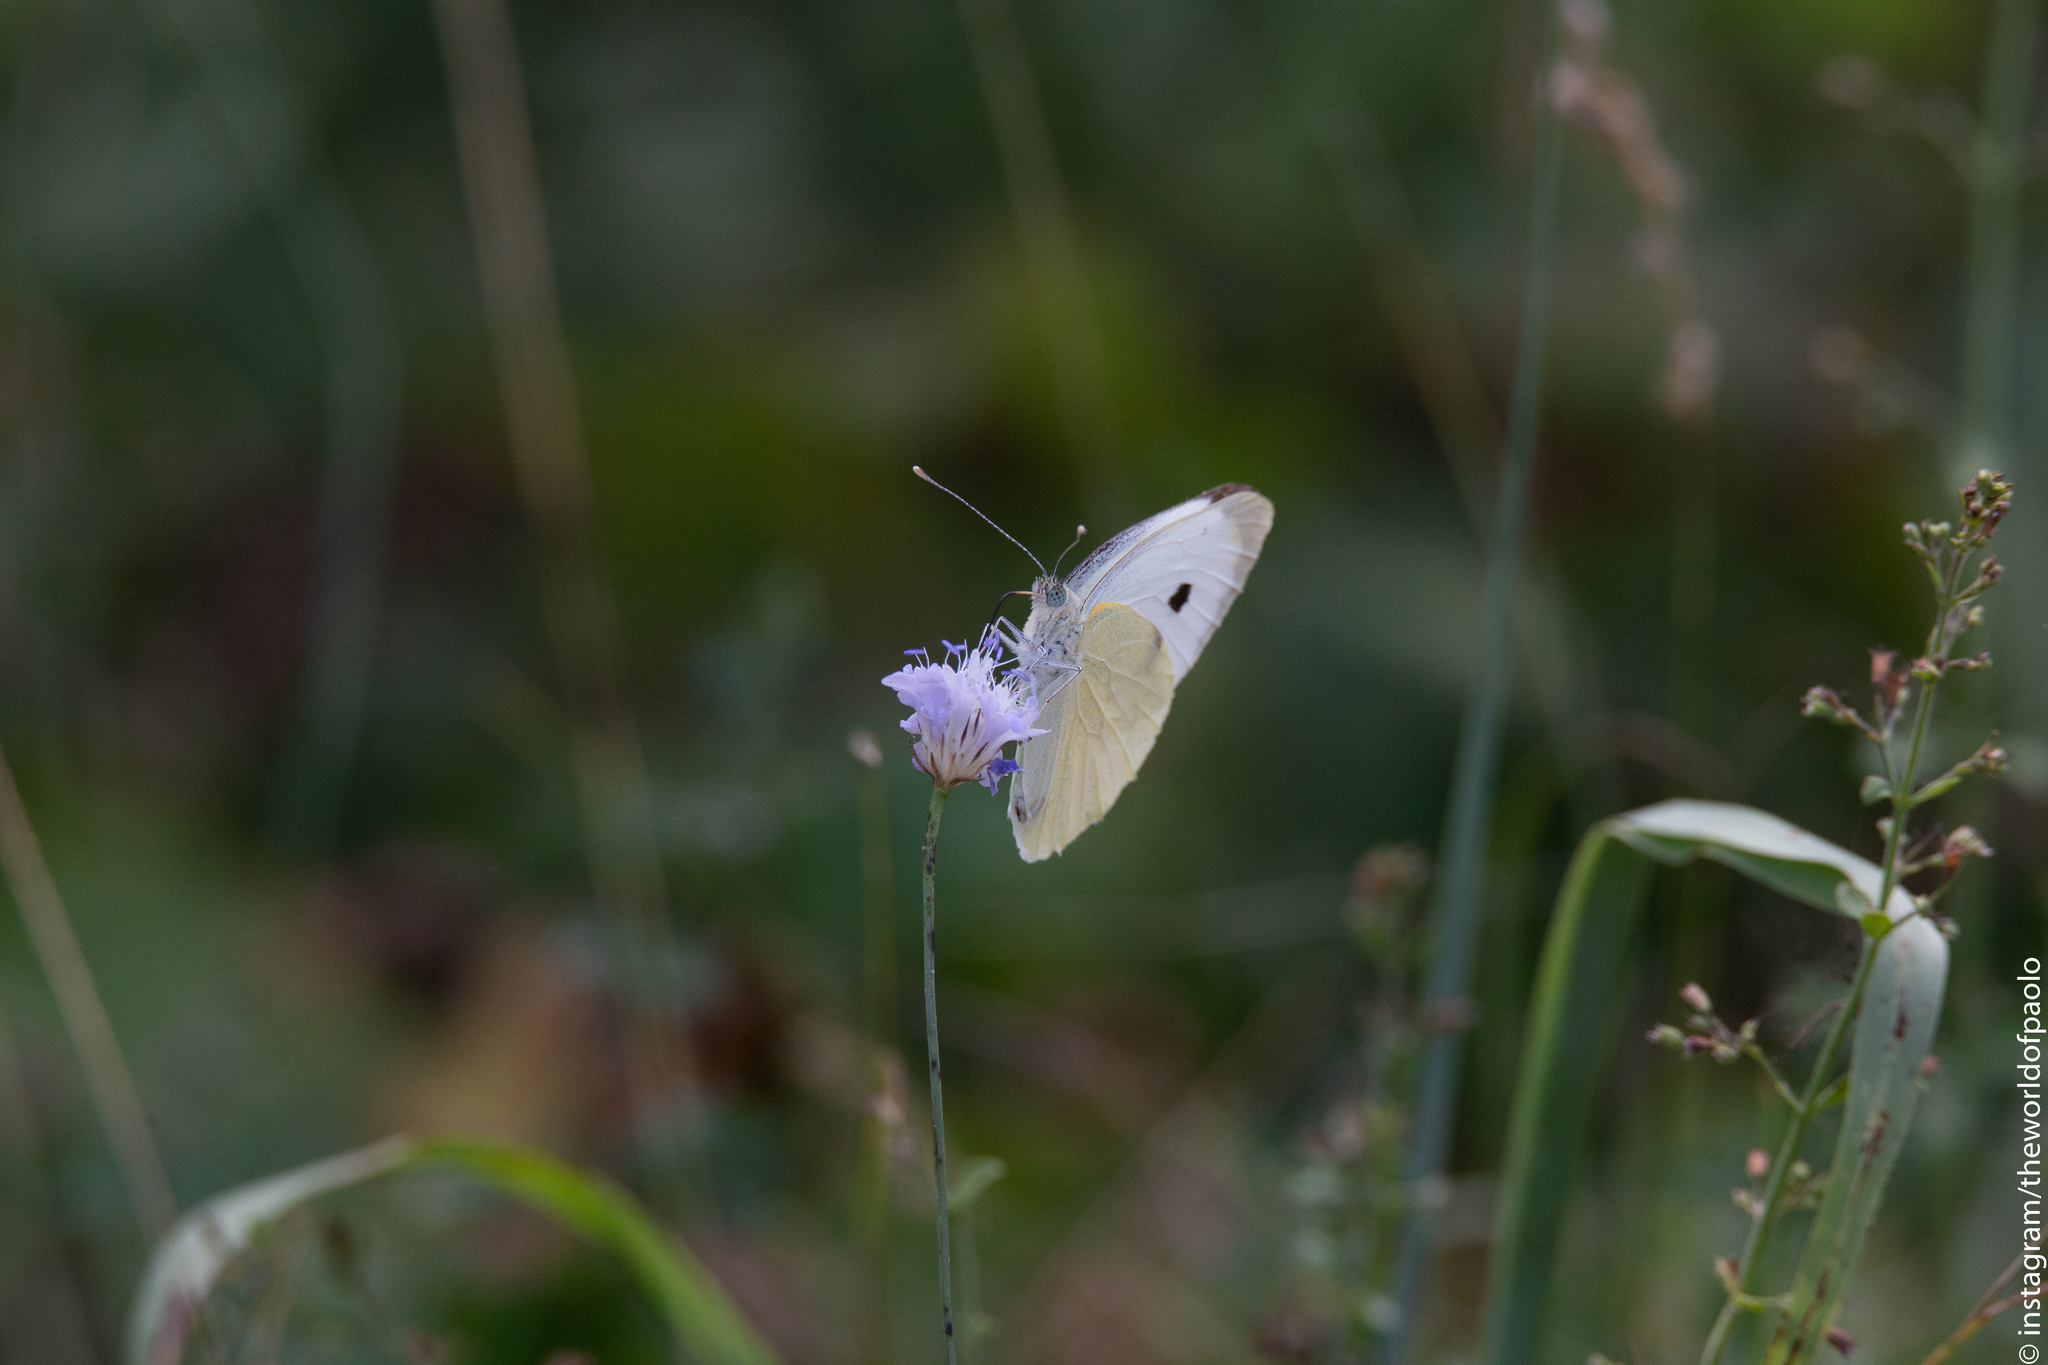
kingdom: Animalia
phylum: Arthropoda
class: Insecta
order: Lepidoptera
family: Pieridae
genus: Pieris
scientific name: Pieris brassicae
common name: Large white
